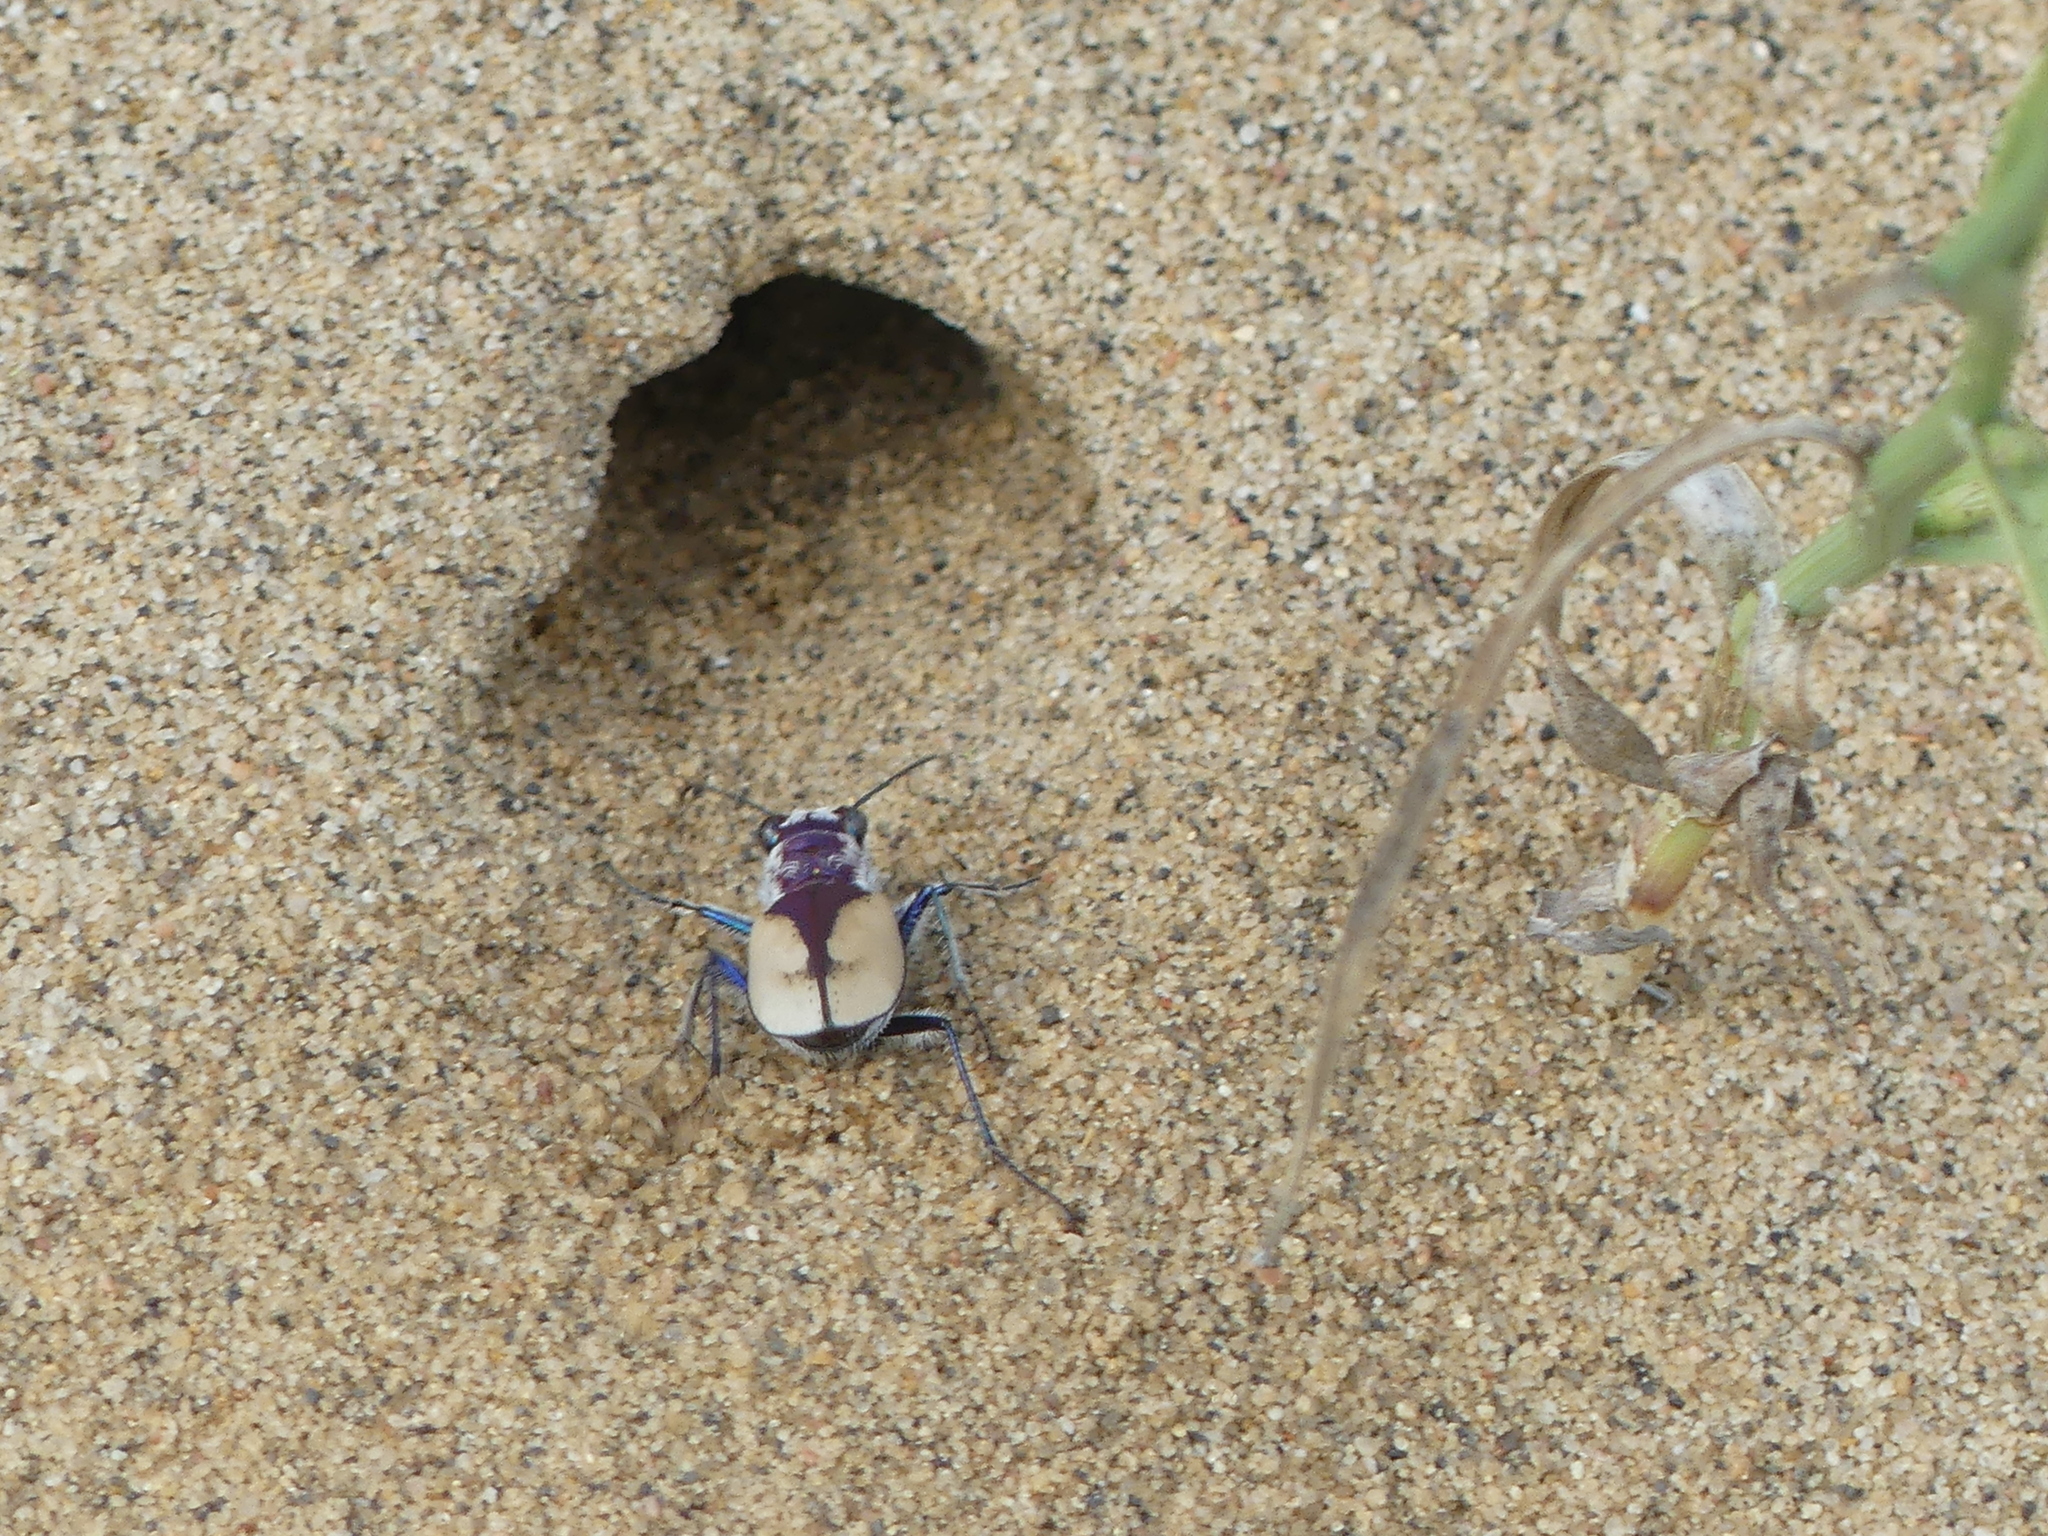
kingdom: Animalia
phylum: Arthropoda
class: Insecta
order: Coleoptera
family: Carabidae
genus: Cicindela
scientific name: Cicindela formosa
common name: Big sand tiger beetle
